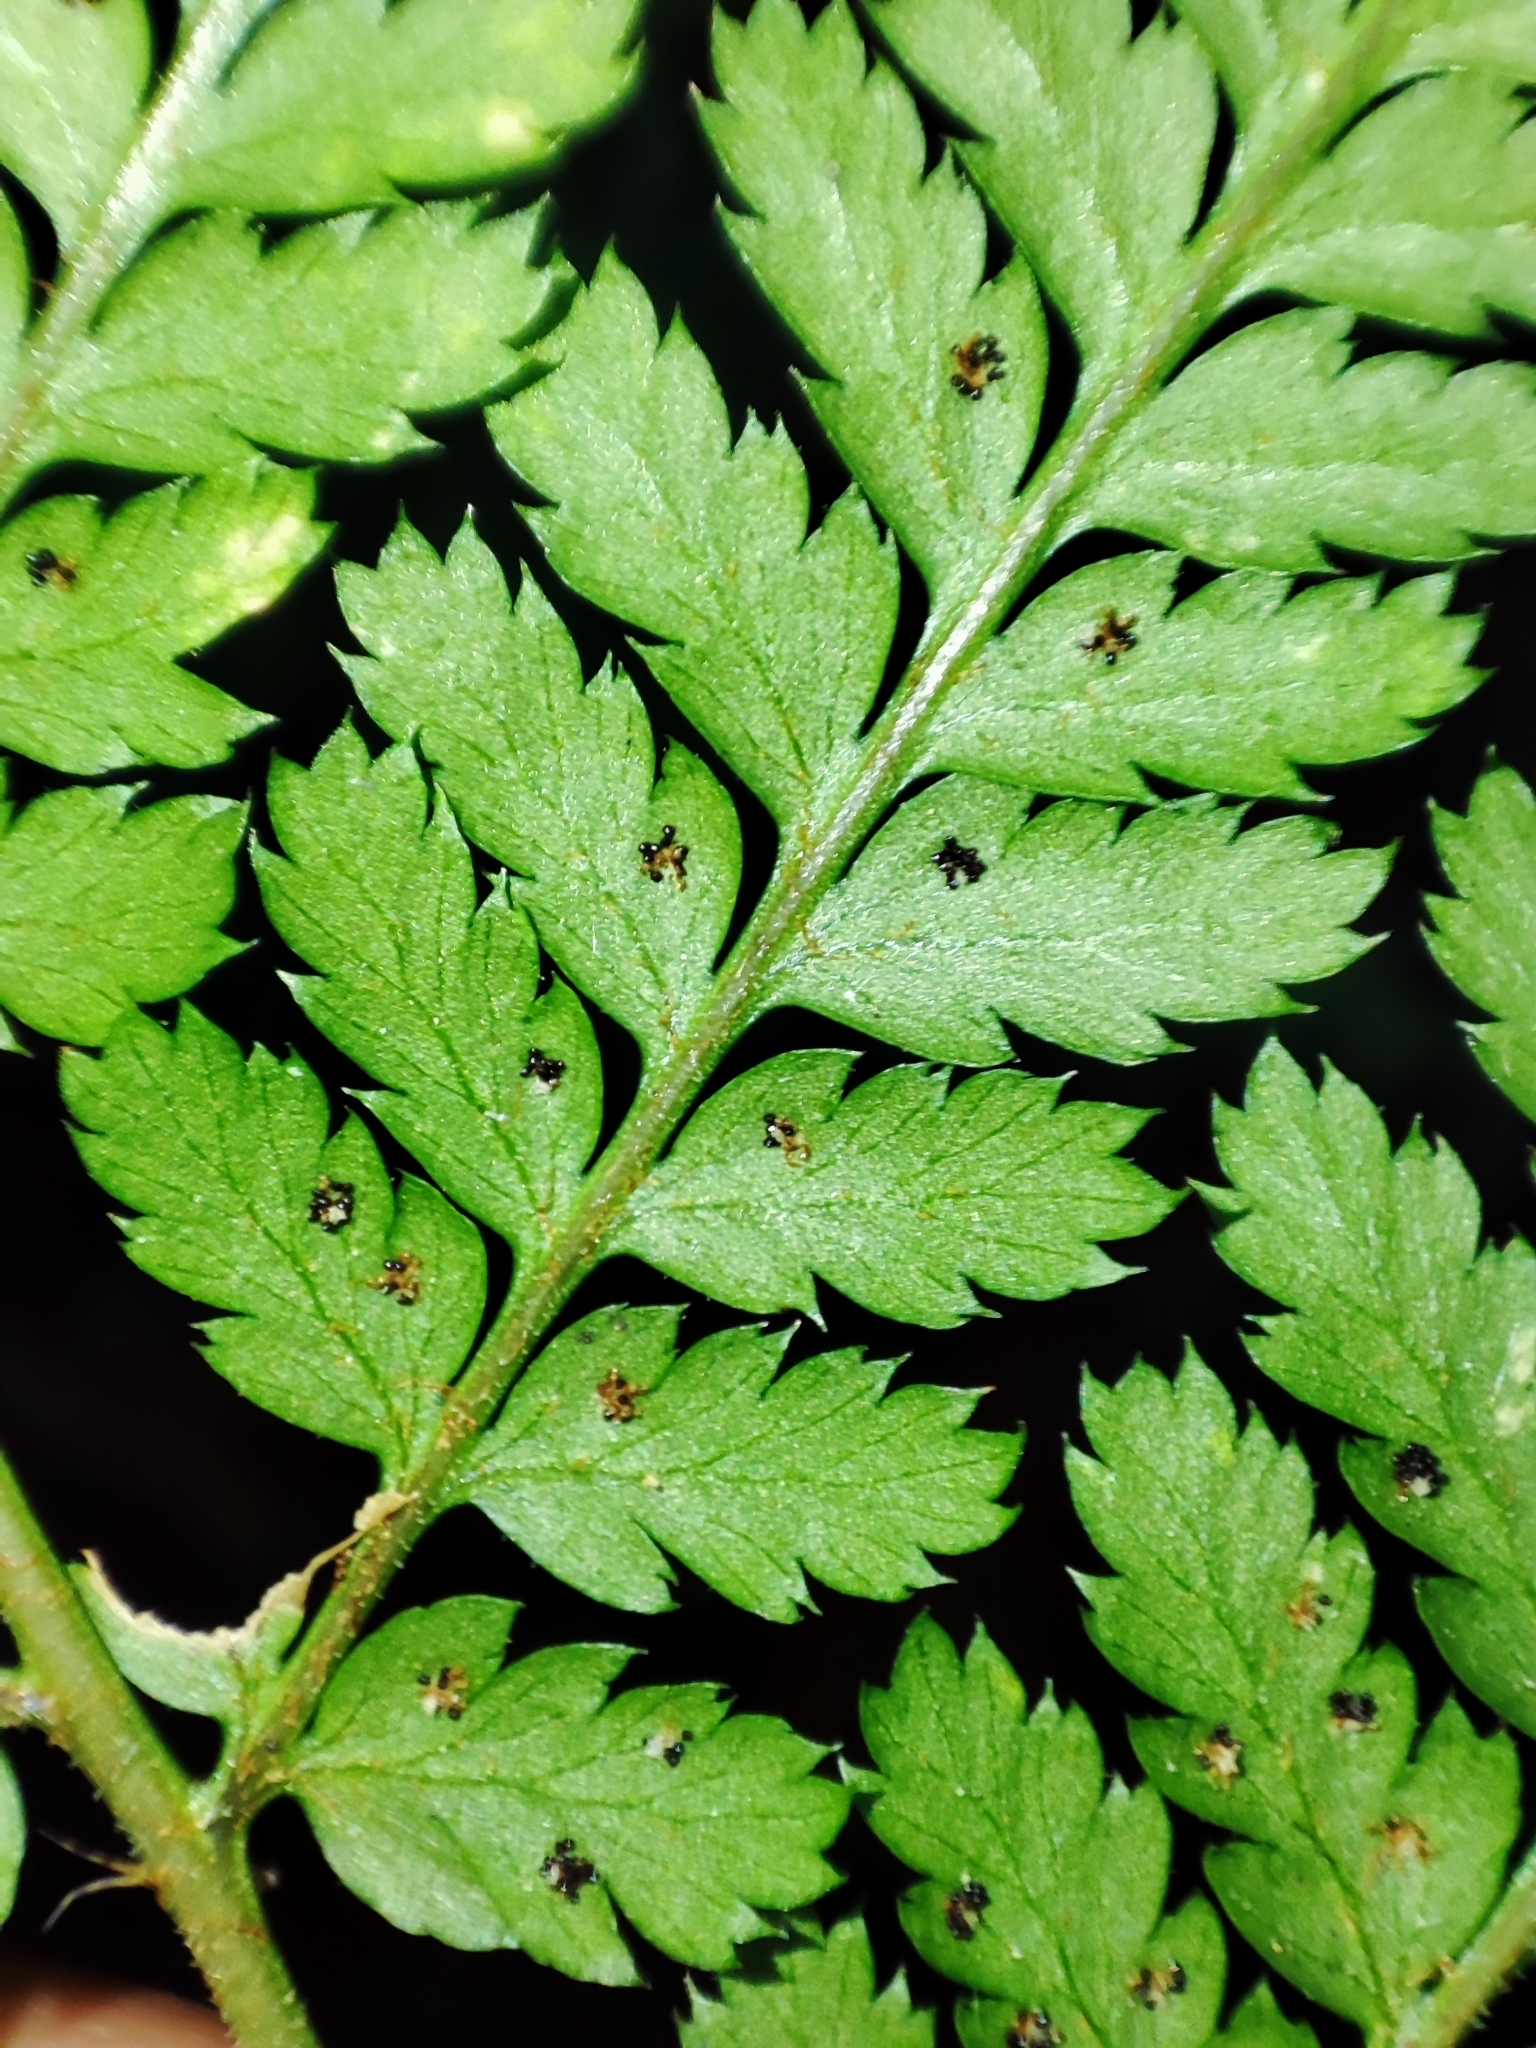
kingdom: Plantae
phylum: Tracheophyta
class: Polypodiopsida
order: Polypodiales
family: Dryopteridaceae
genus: Dryopteris
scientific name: Dryopteris carthusiana
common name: Narrow buckler-fern
